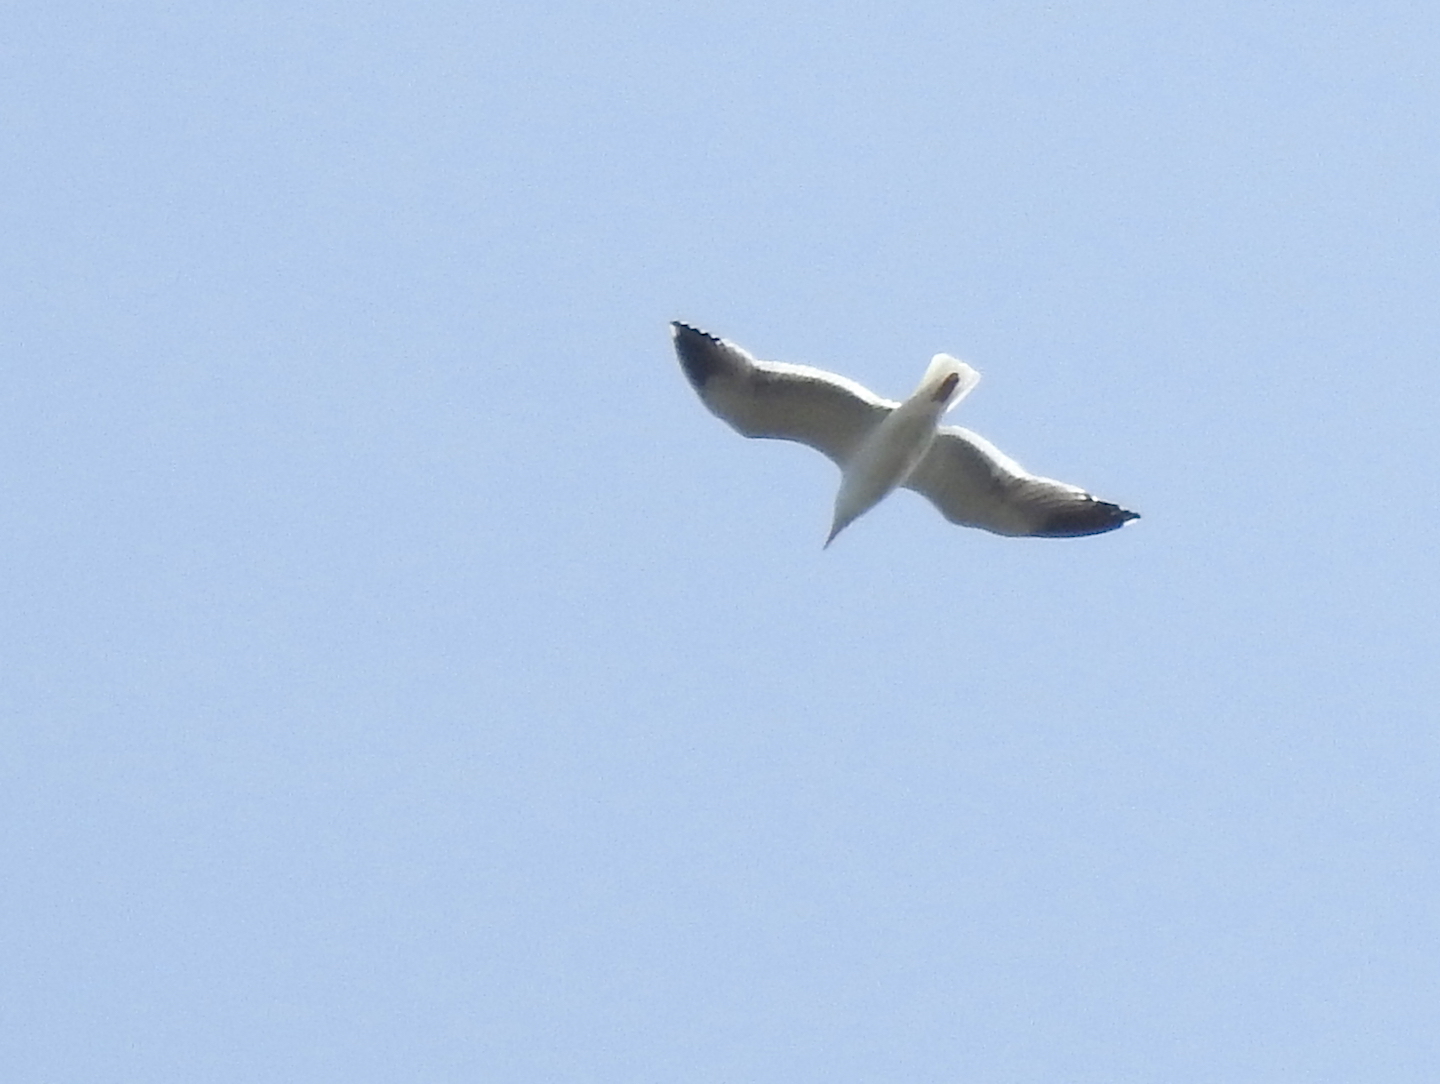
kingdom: Animalia
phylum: Chordata
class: Aves
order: Charadriiformes
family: Laridae
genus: Larus
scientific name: Larus californicus
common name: California gull
